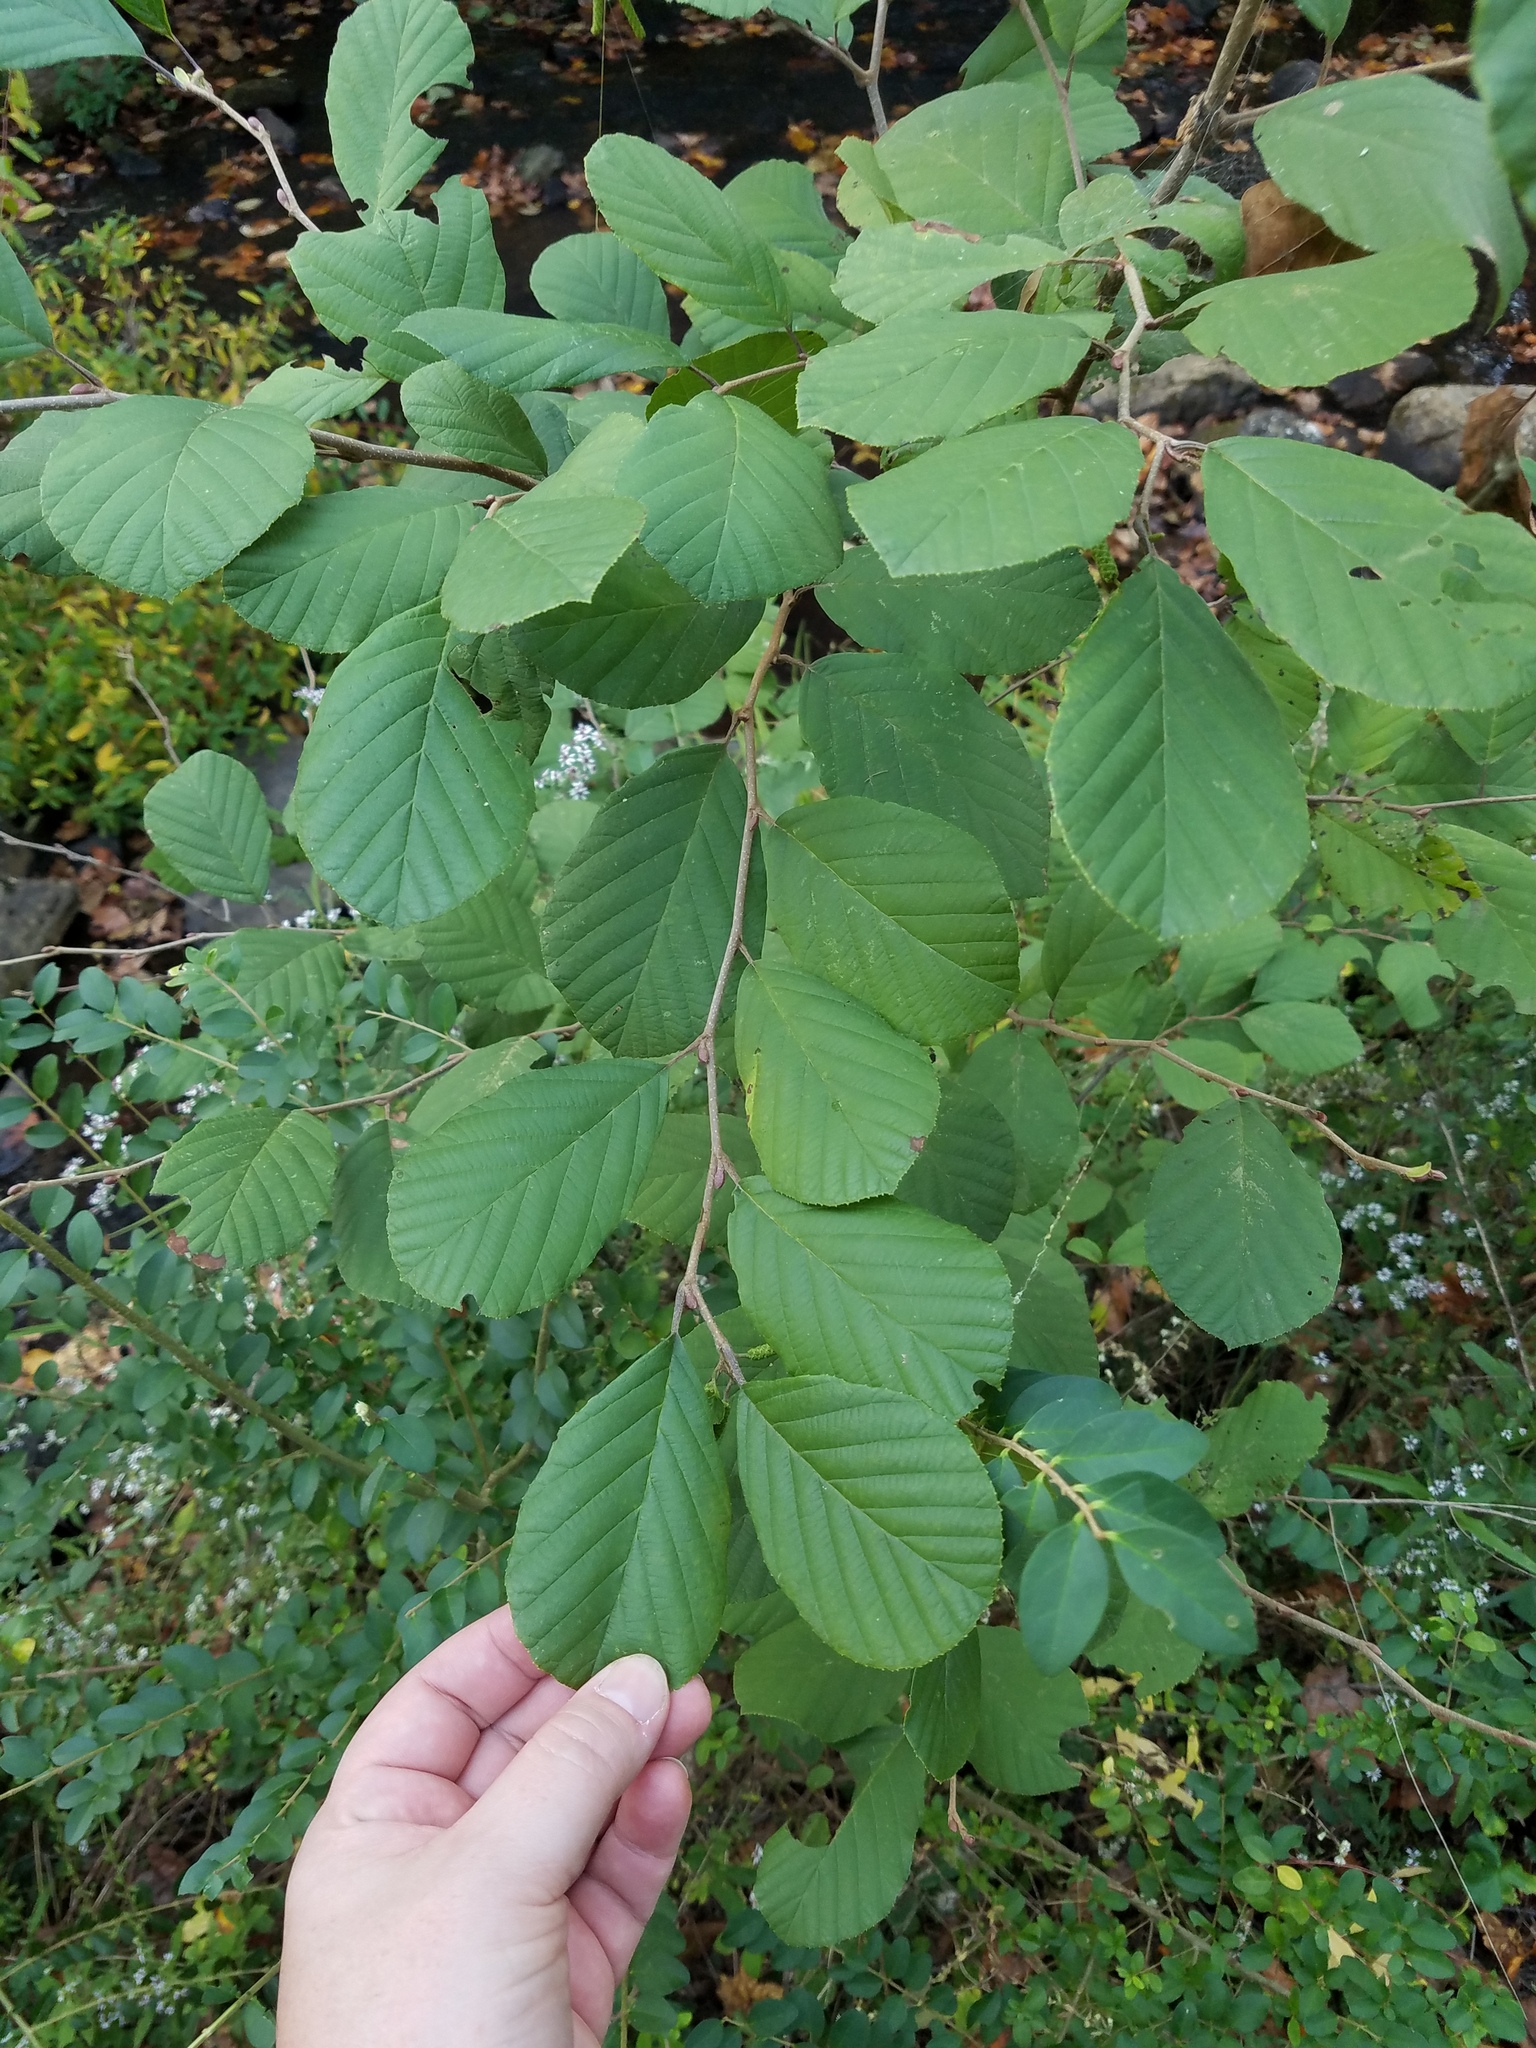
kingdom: Plantae
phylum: Tracheophyta
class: Magnoliopsida
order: Fagales
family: Betulaceae
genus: Alnus
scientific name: Alnus serrulata
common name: Hazel alder
